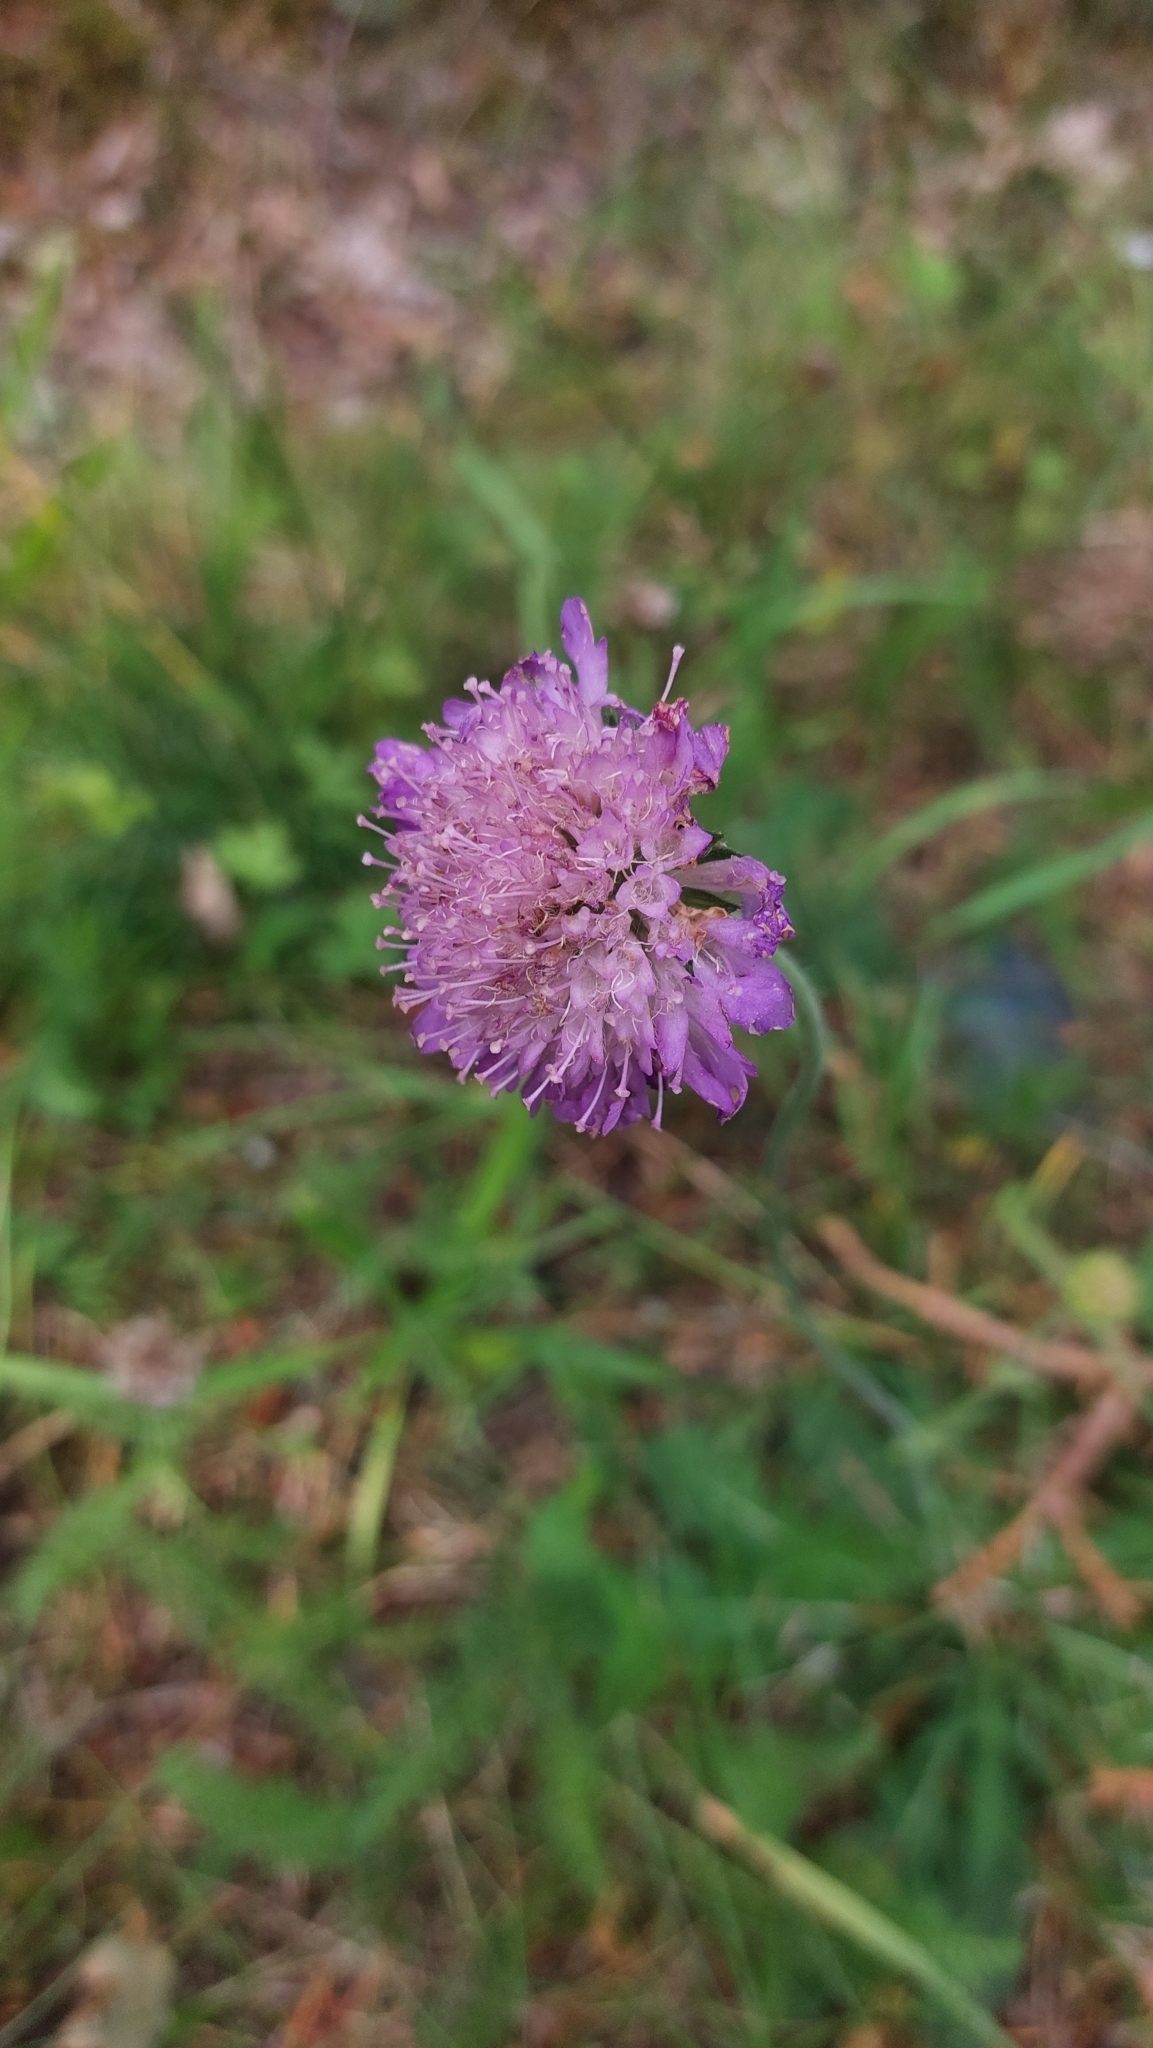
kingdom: Plantae
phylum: Tracheophyta
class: Magnoliopsida
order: Dipsacales
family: Caprifoliaceae
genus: Knautia
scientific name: Knautia arvensis
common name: Field scabiosa
